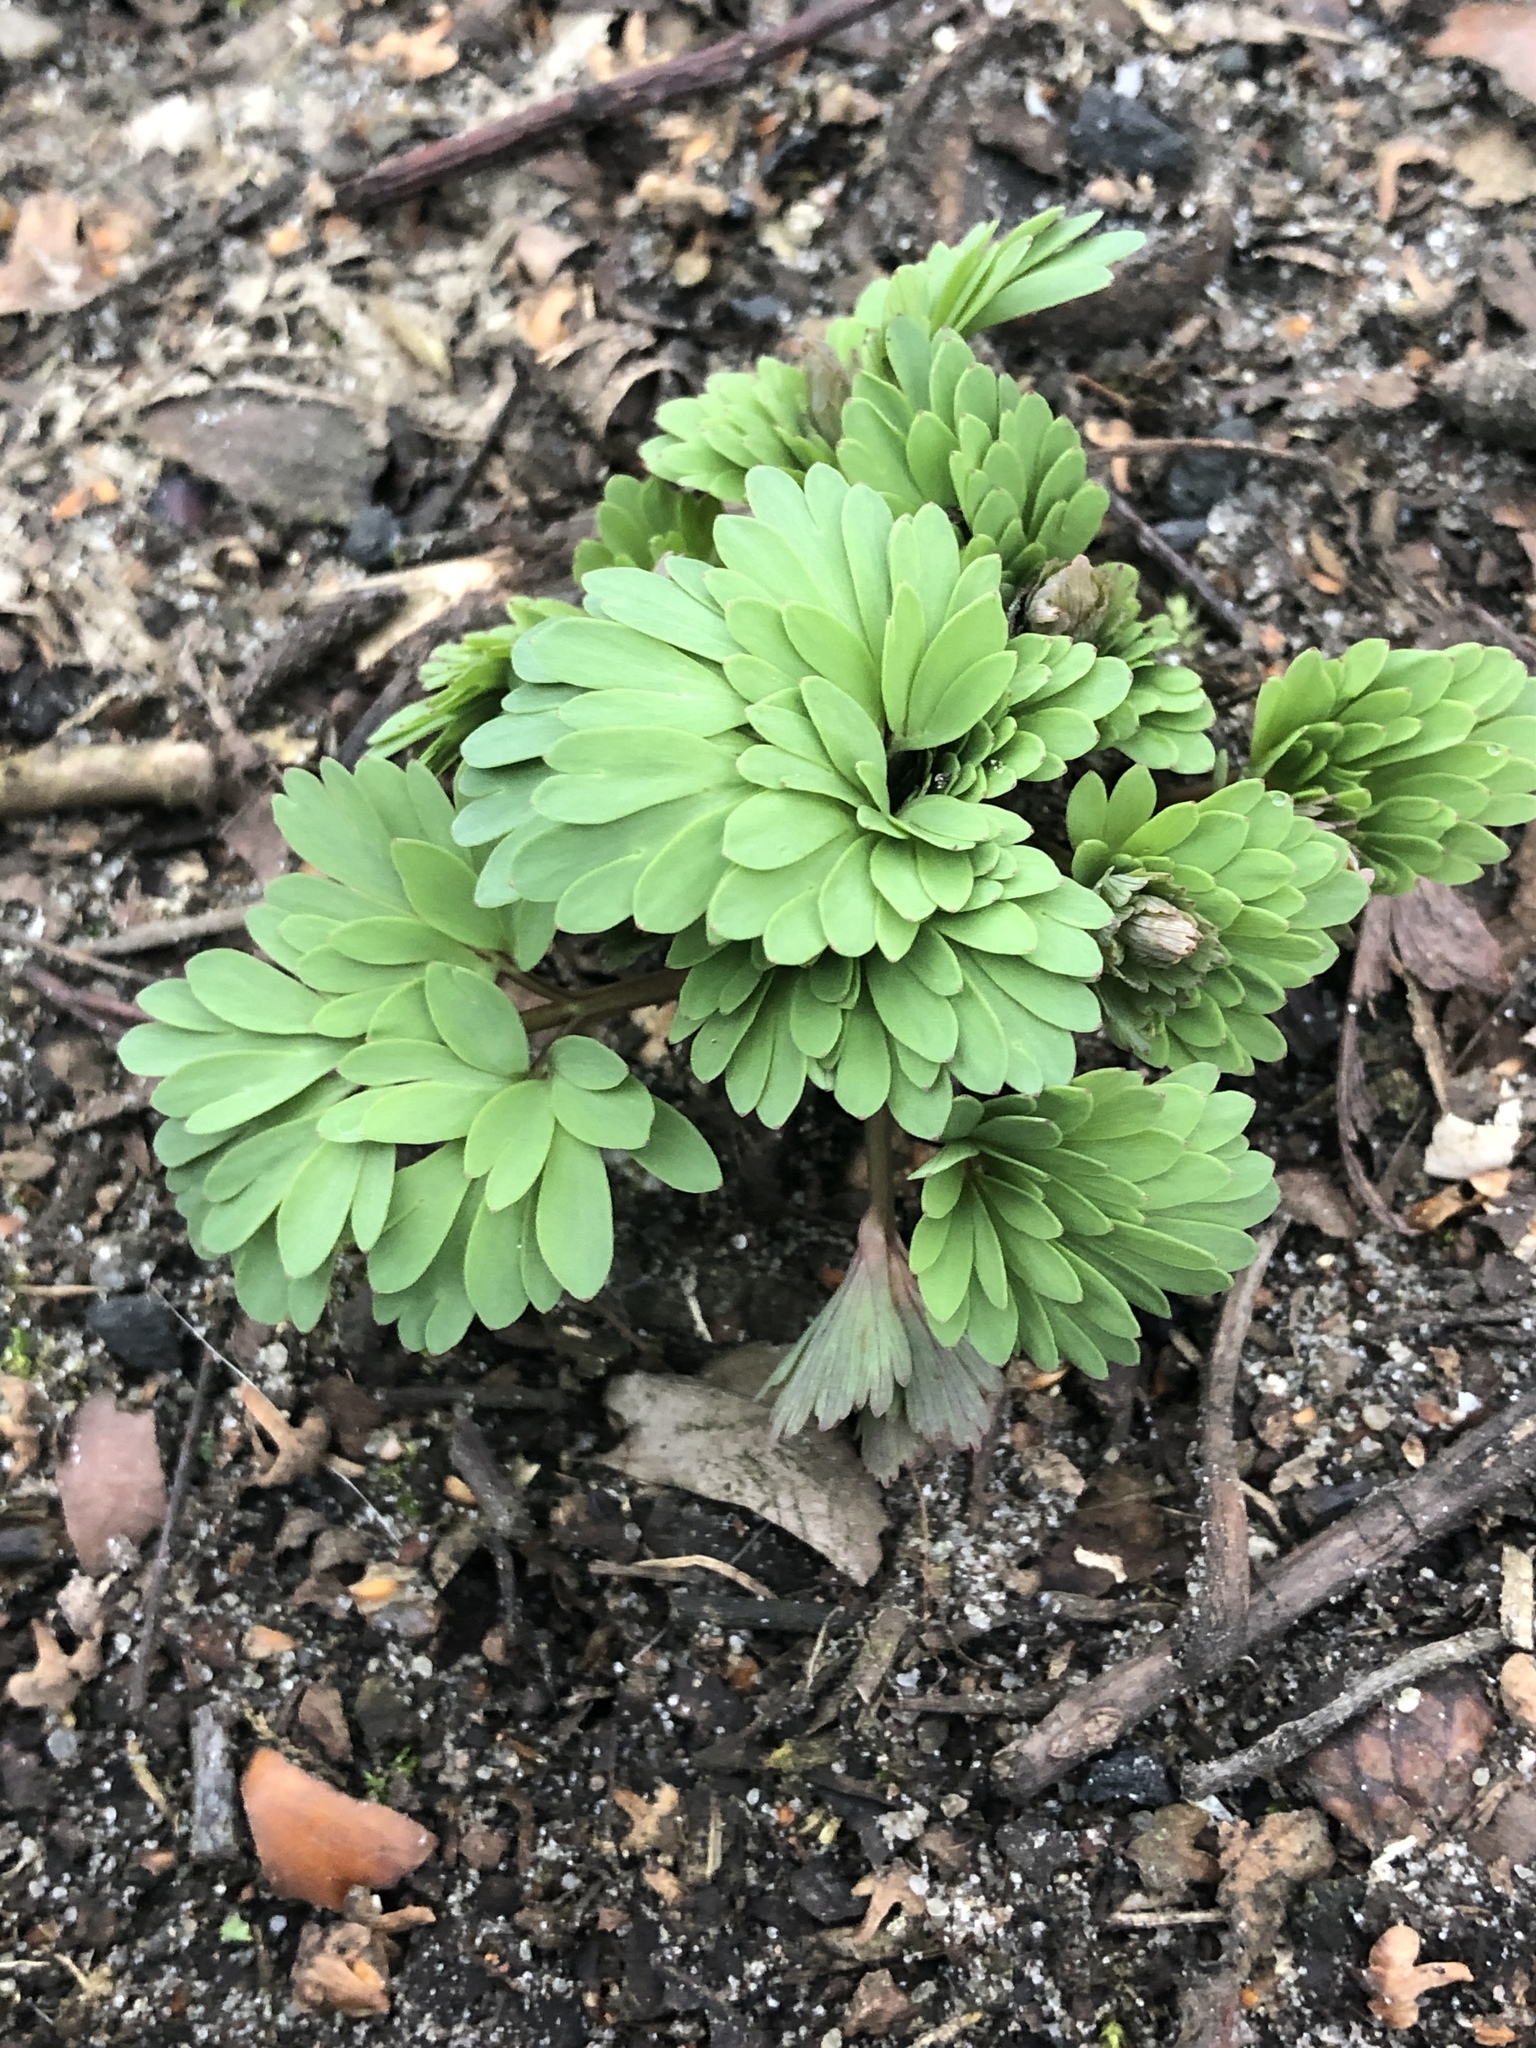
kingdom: Plantae
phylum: Tracheophyta
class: Magnoliopsida
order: Ranunculales
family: Papaveraceae
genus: Corydalis
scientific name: Corydalis solida
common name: Bird-in-a-bush
